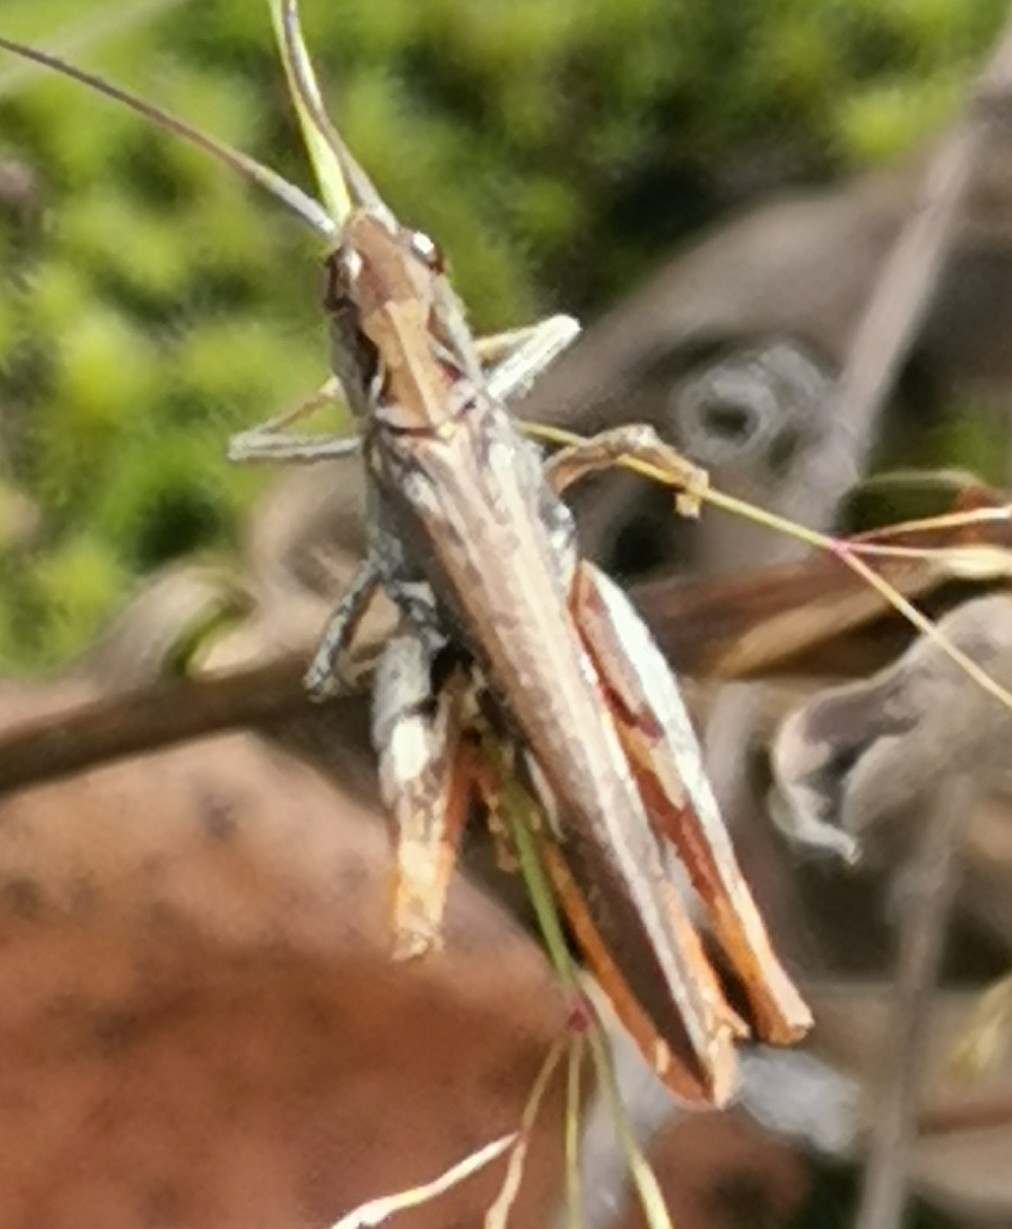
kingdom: Animalia
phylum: Arthropoda
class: Insecta
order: Orthoptera
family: Acrididae
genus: Chorthippus
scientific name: Chorthippus brunneus
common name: Field grasshopper
